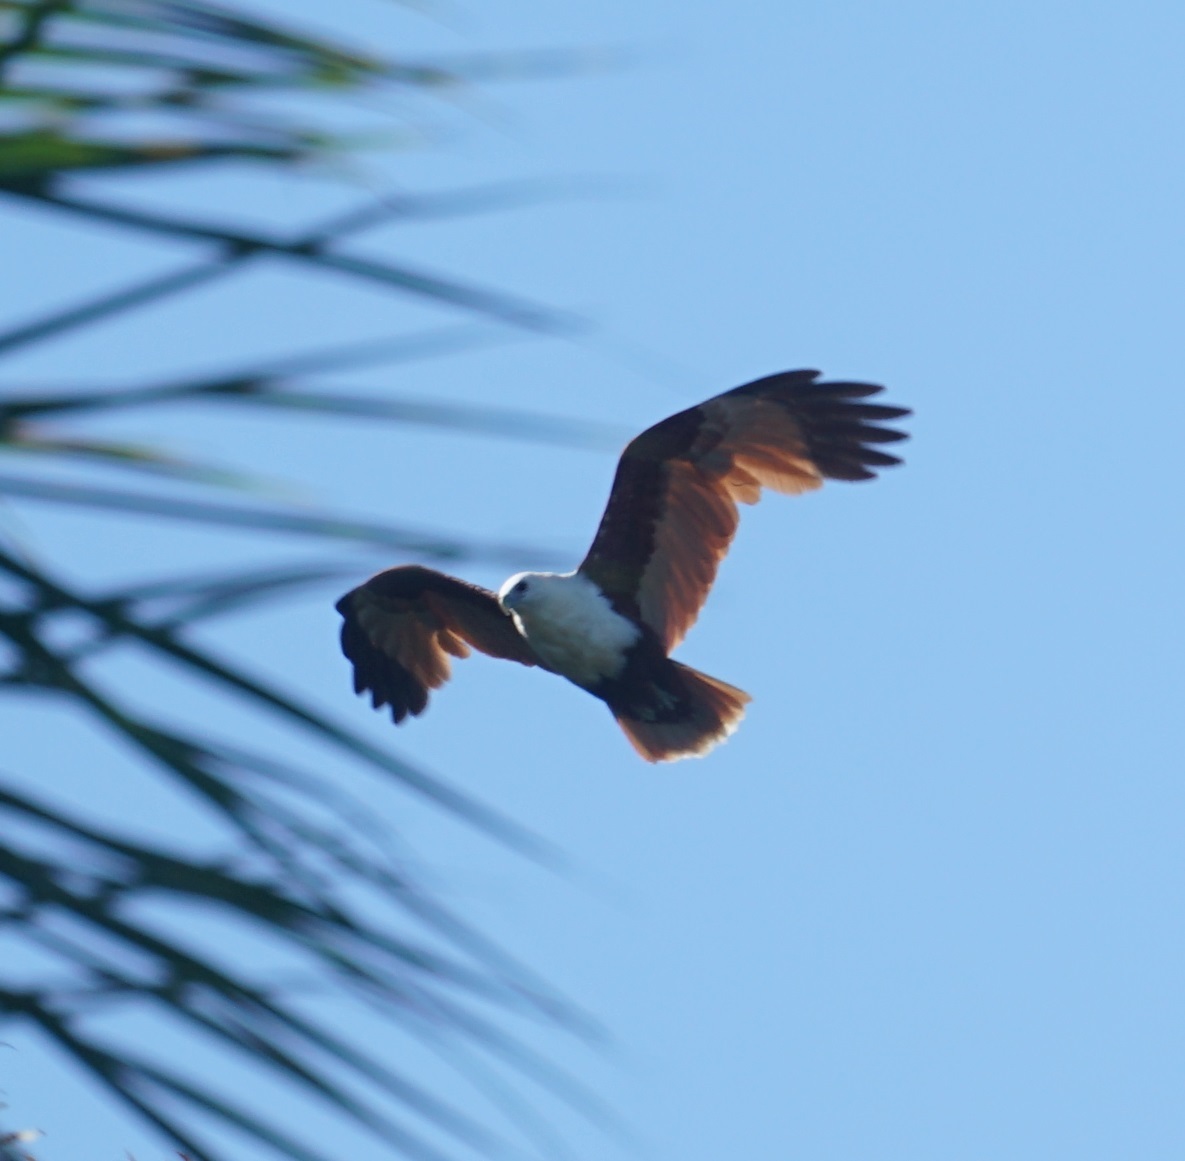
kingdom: Animalia
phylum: Chordata
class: Aves
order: Accipitriformes
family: Accipitridae
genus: Haliastur
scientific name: Haliastur indus
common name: Brahminy kite
